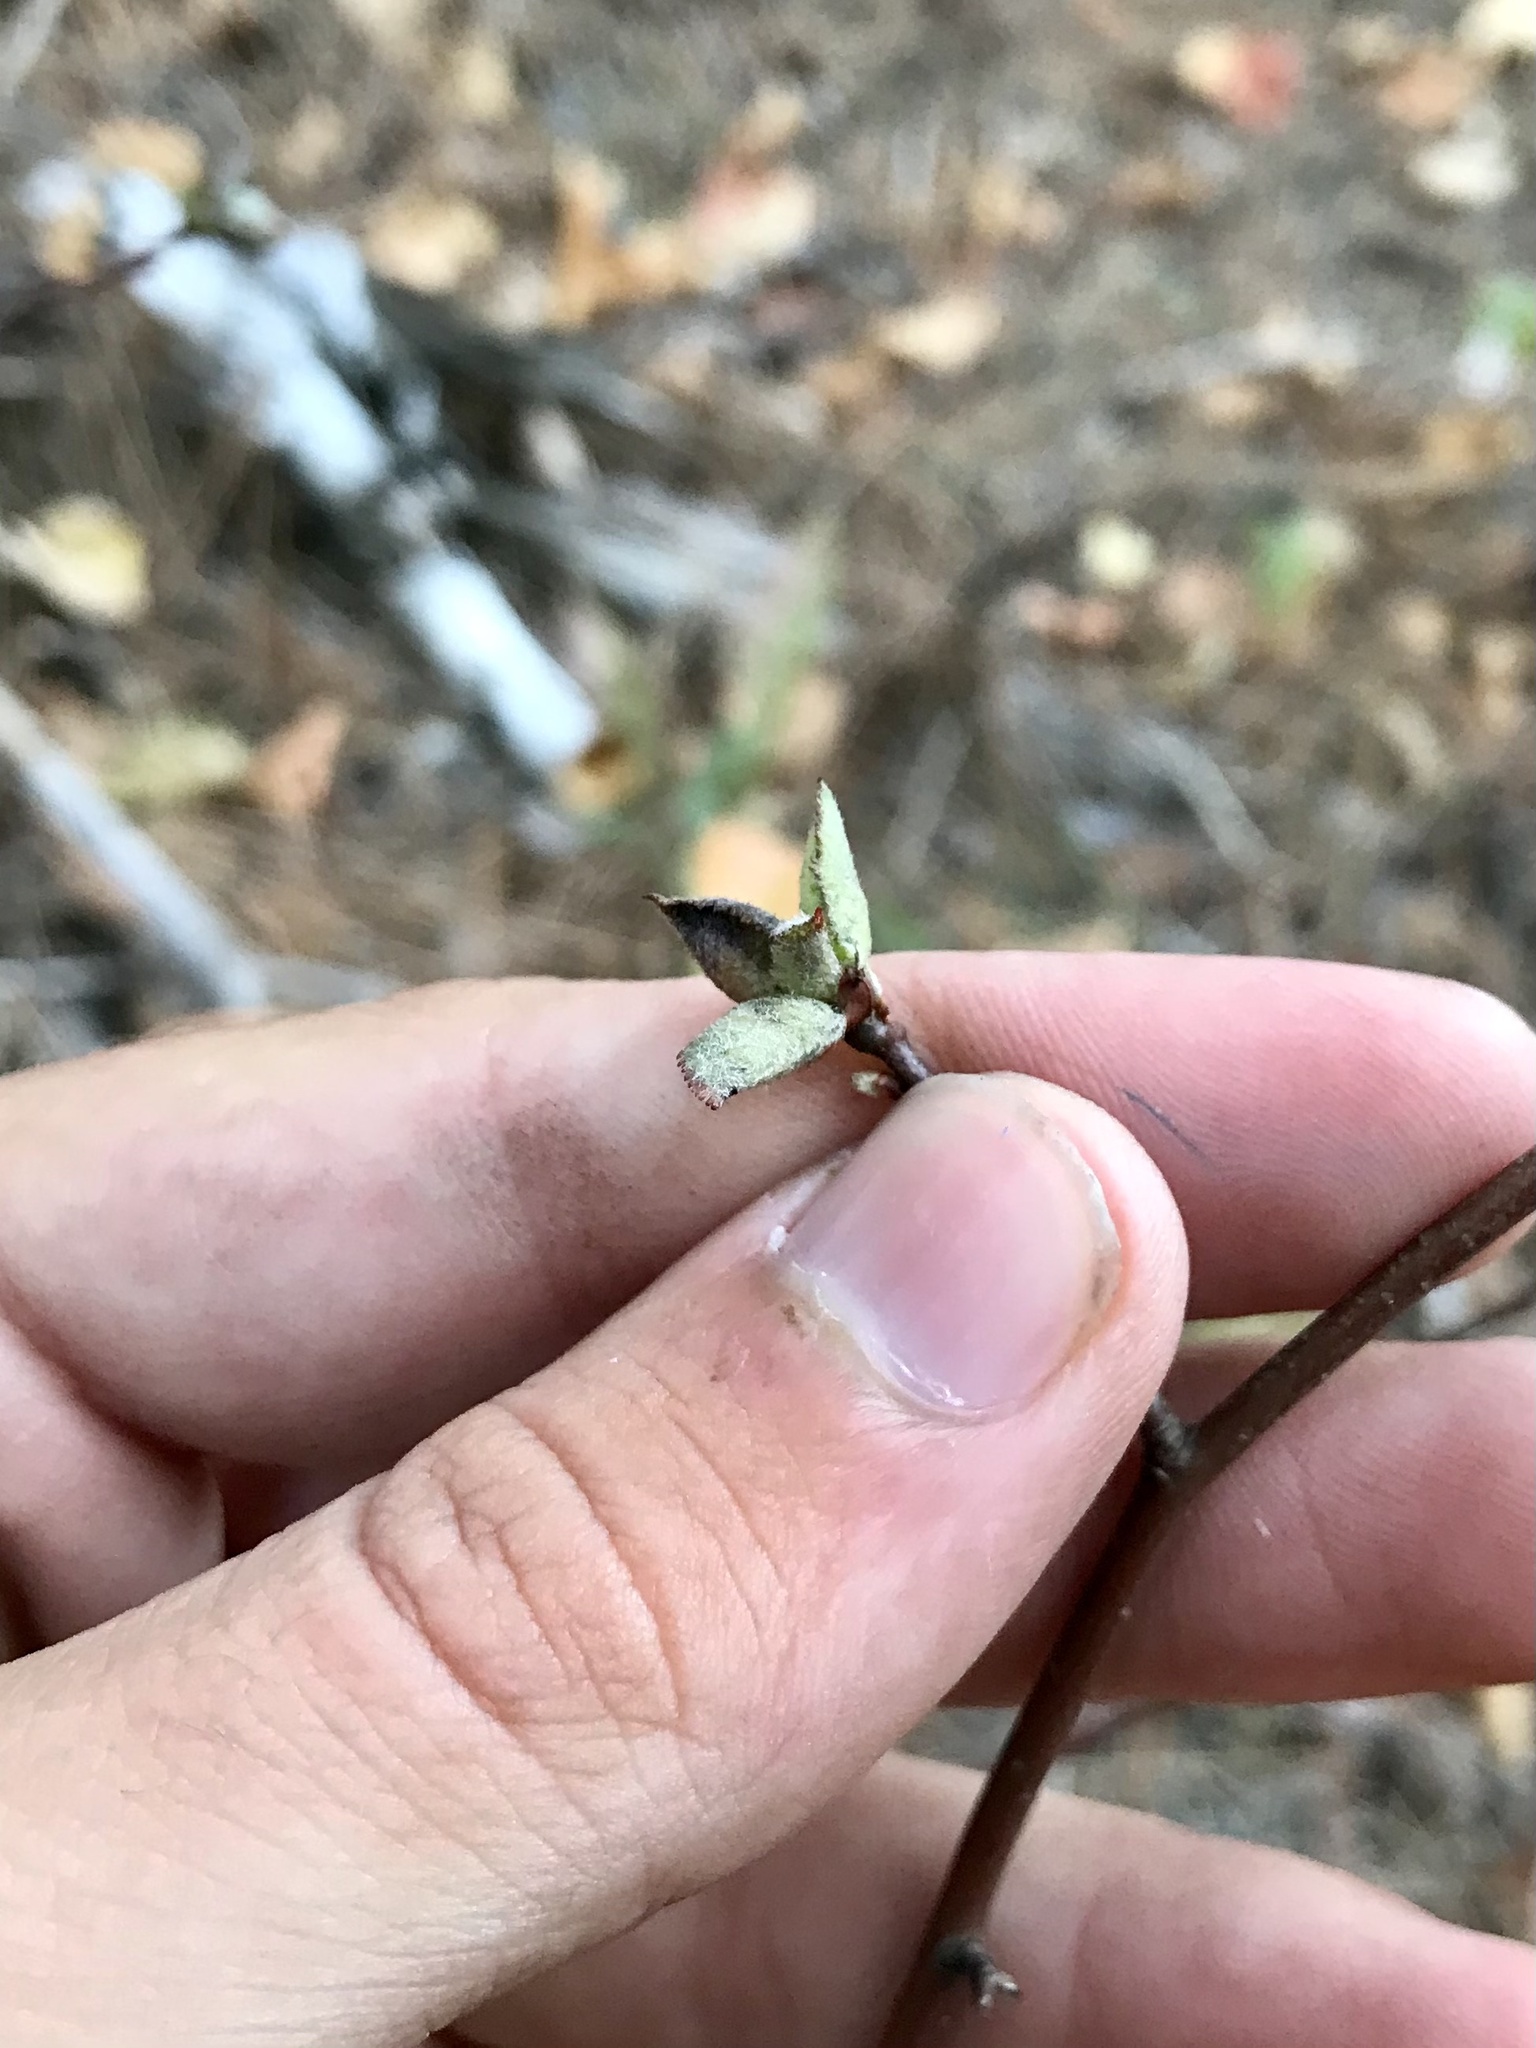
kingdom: Animalia
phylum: Arthropoda
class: Insecta
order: Hemiptera
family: Triozidae
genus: Trioza
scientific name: Trioza aylmeriae
